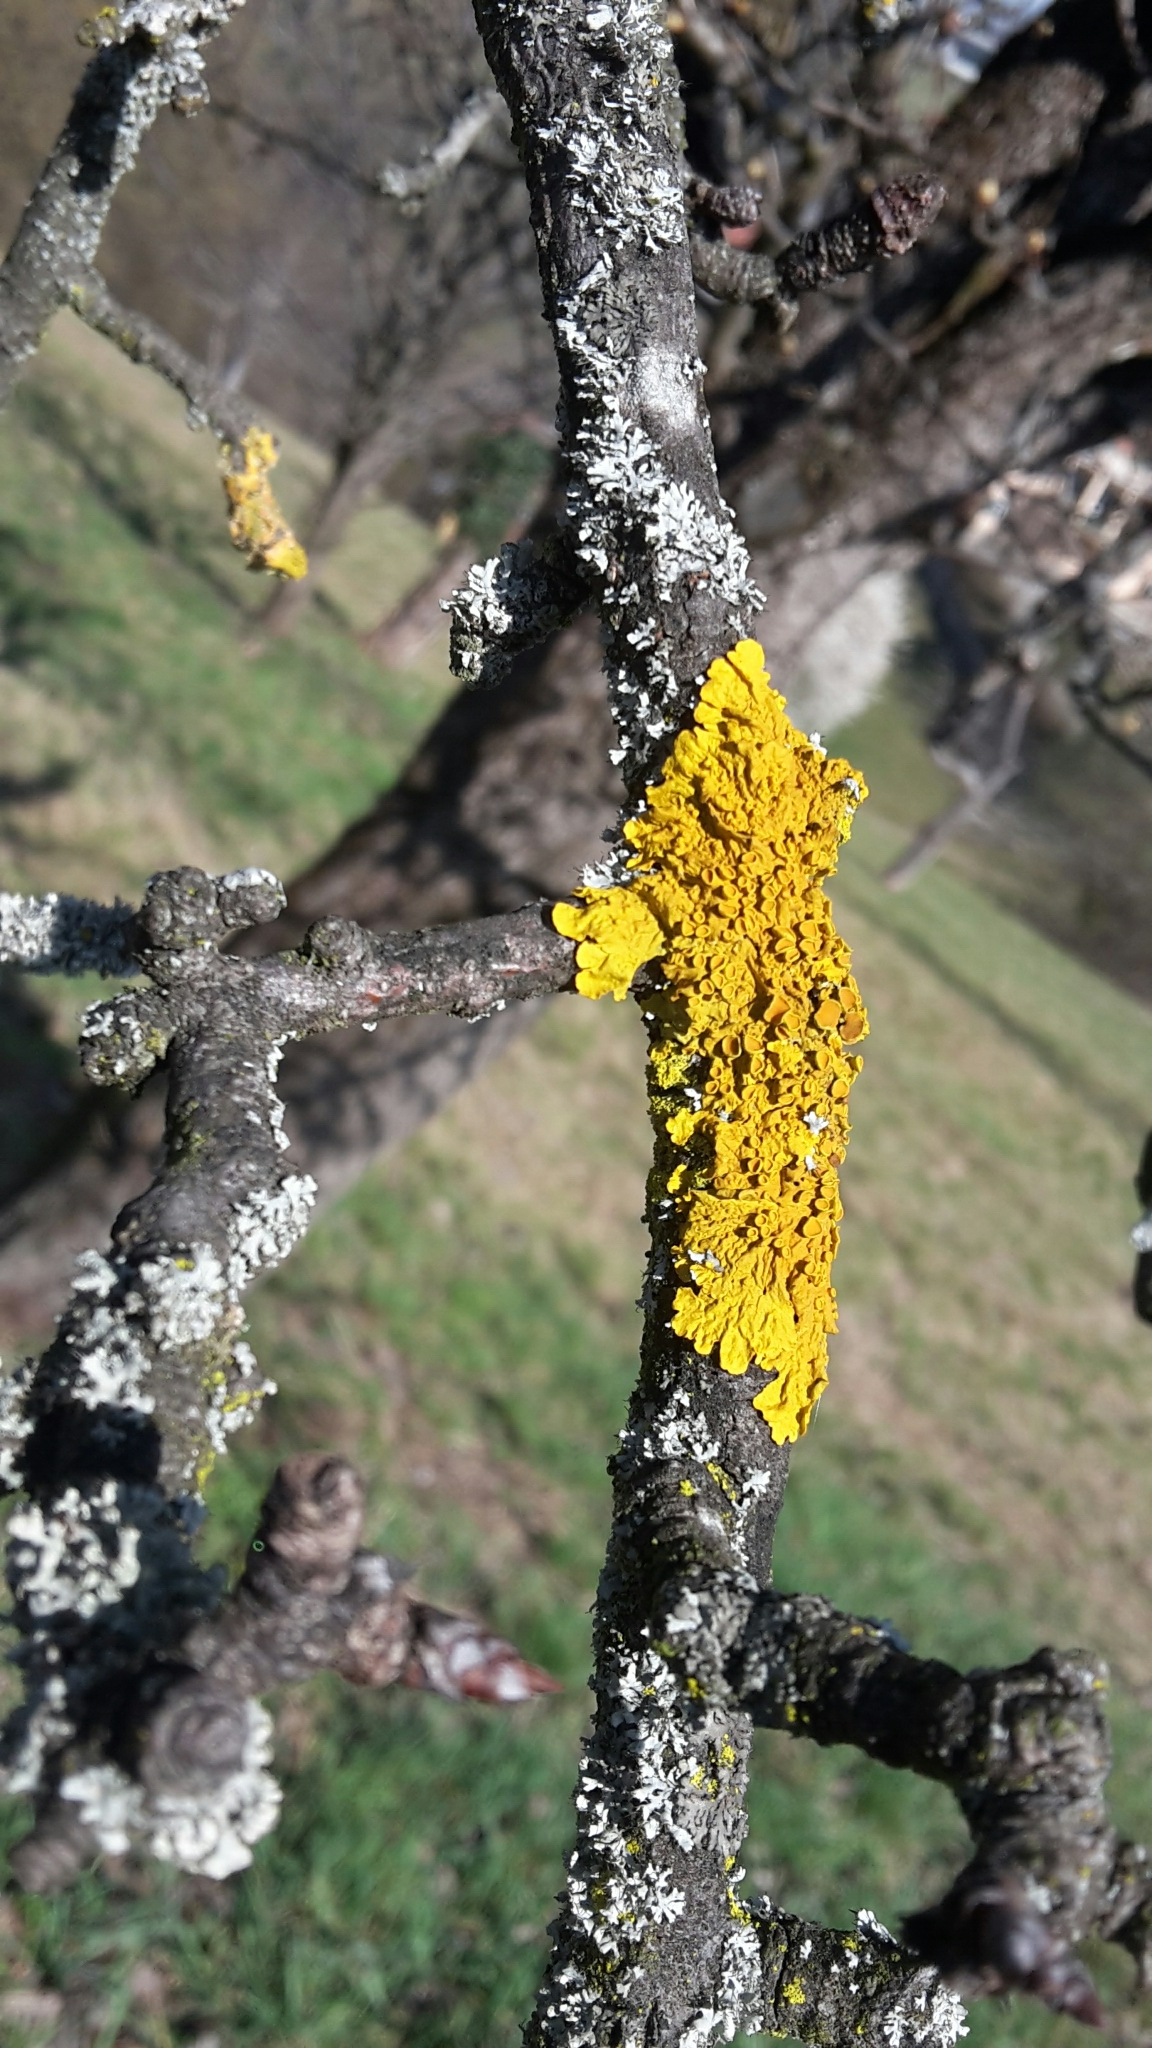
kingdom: Fungi
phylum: Ascomycota
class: Lecanoromycetes
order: Teloschistales
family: Teloschistaceae
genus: Xanthoria
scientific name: Xanthoria parietina
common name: Common orange lichen
